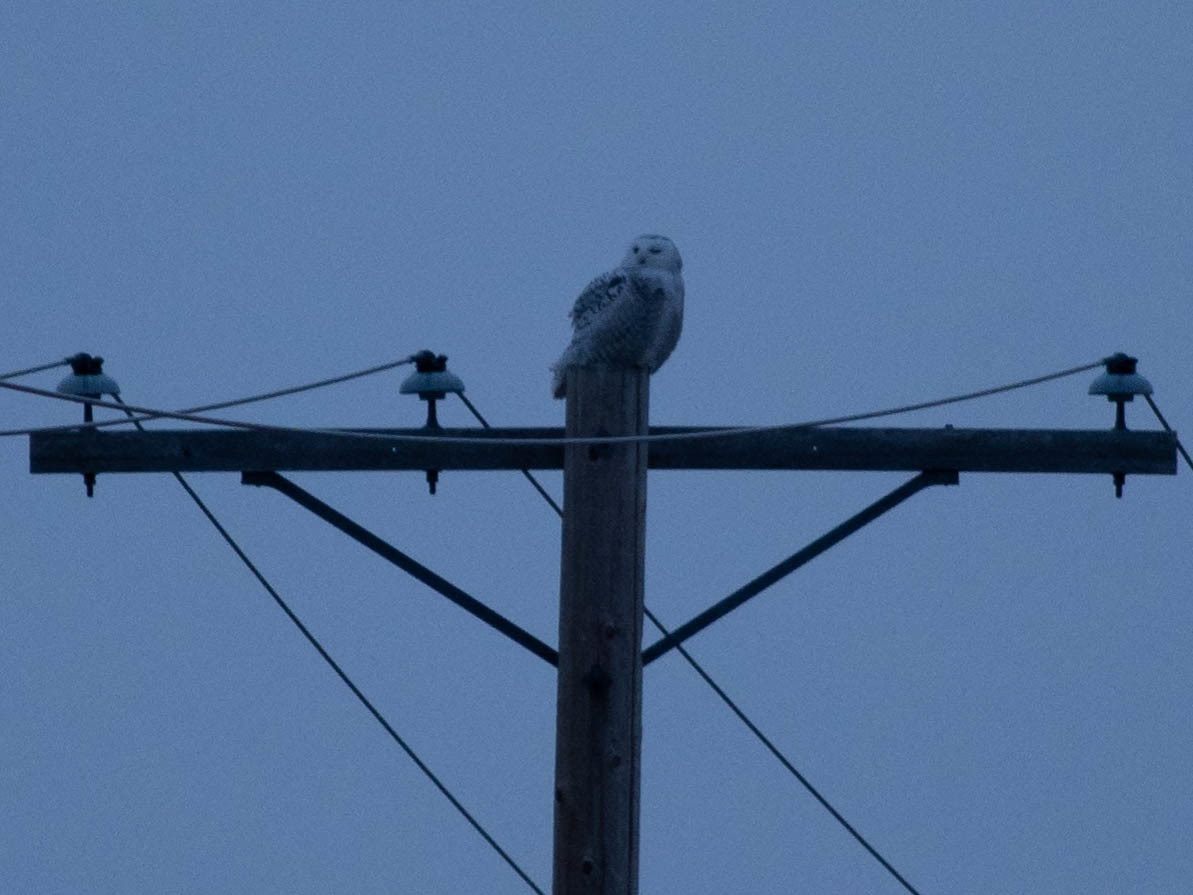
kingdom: Animalia
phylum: Chordata
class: Aves
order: Strigiformes
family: Strigidae
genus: Bubo
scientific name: Bubo scandiacus
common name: Snowy owl
